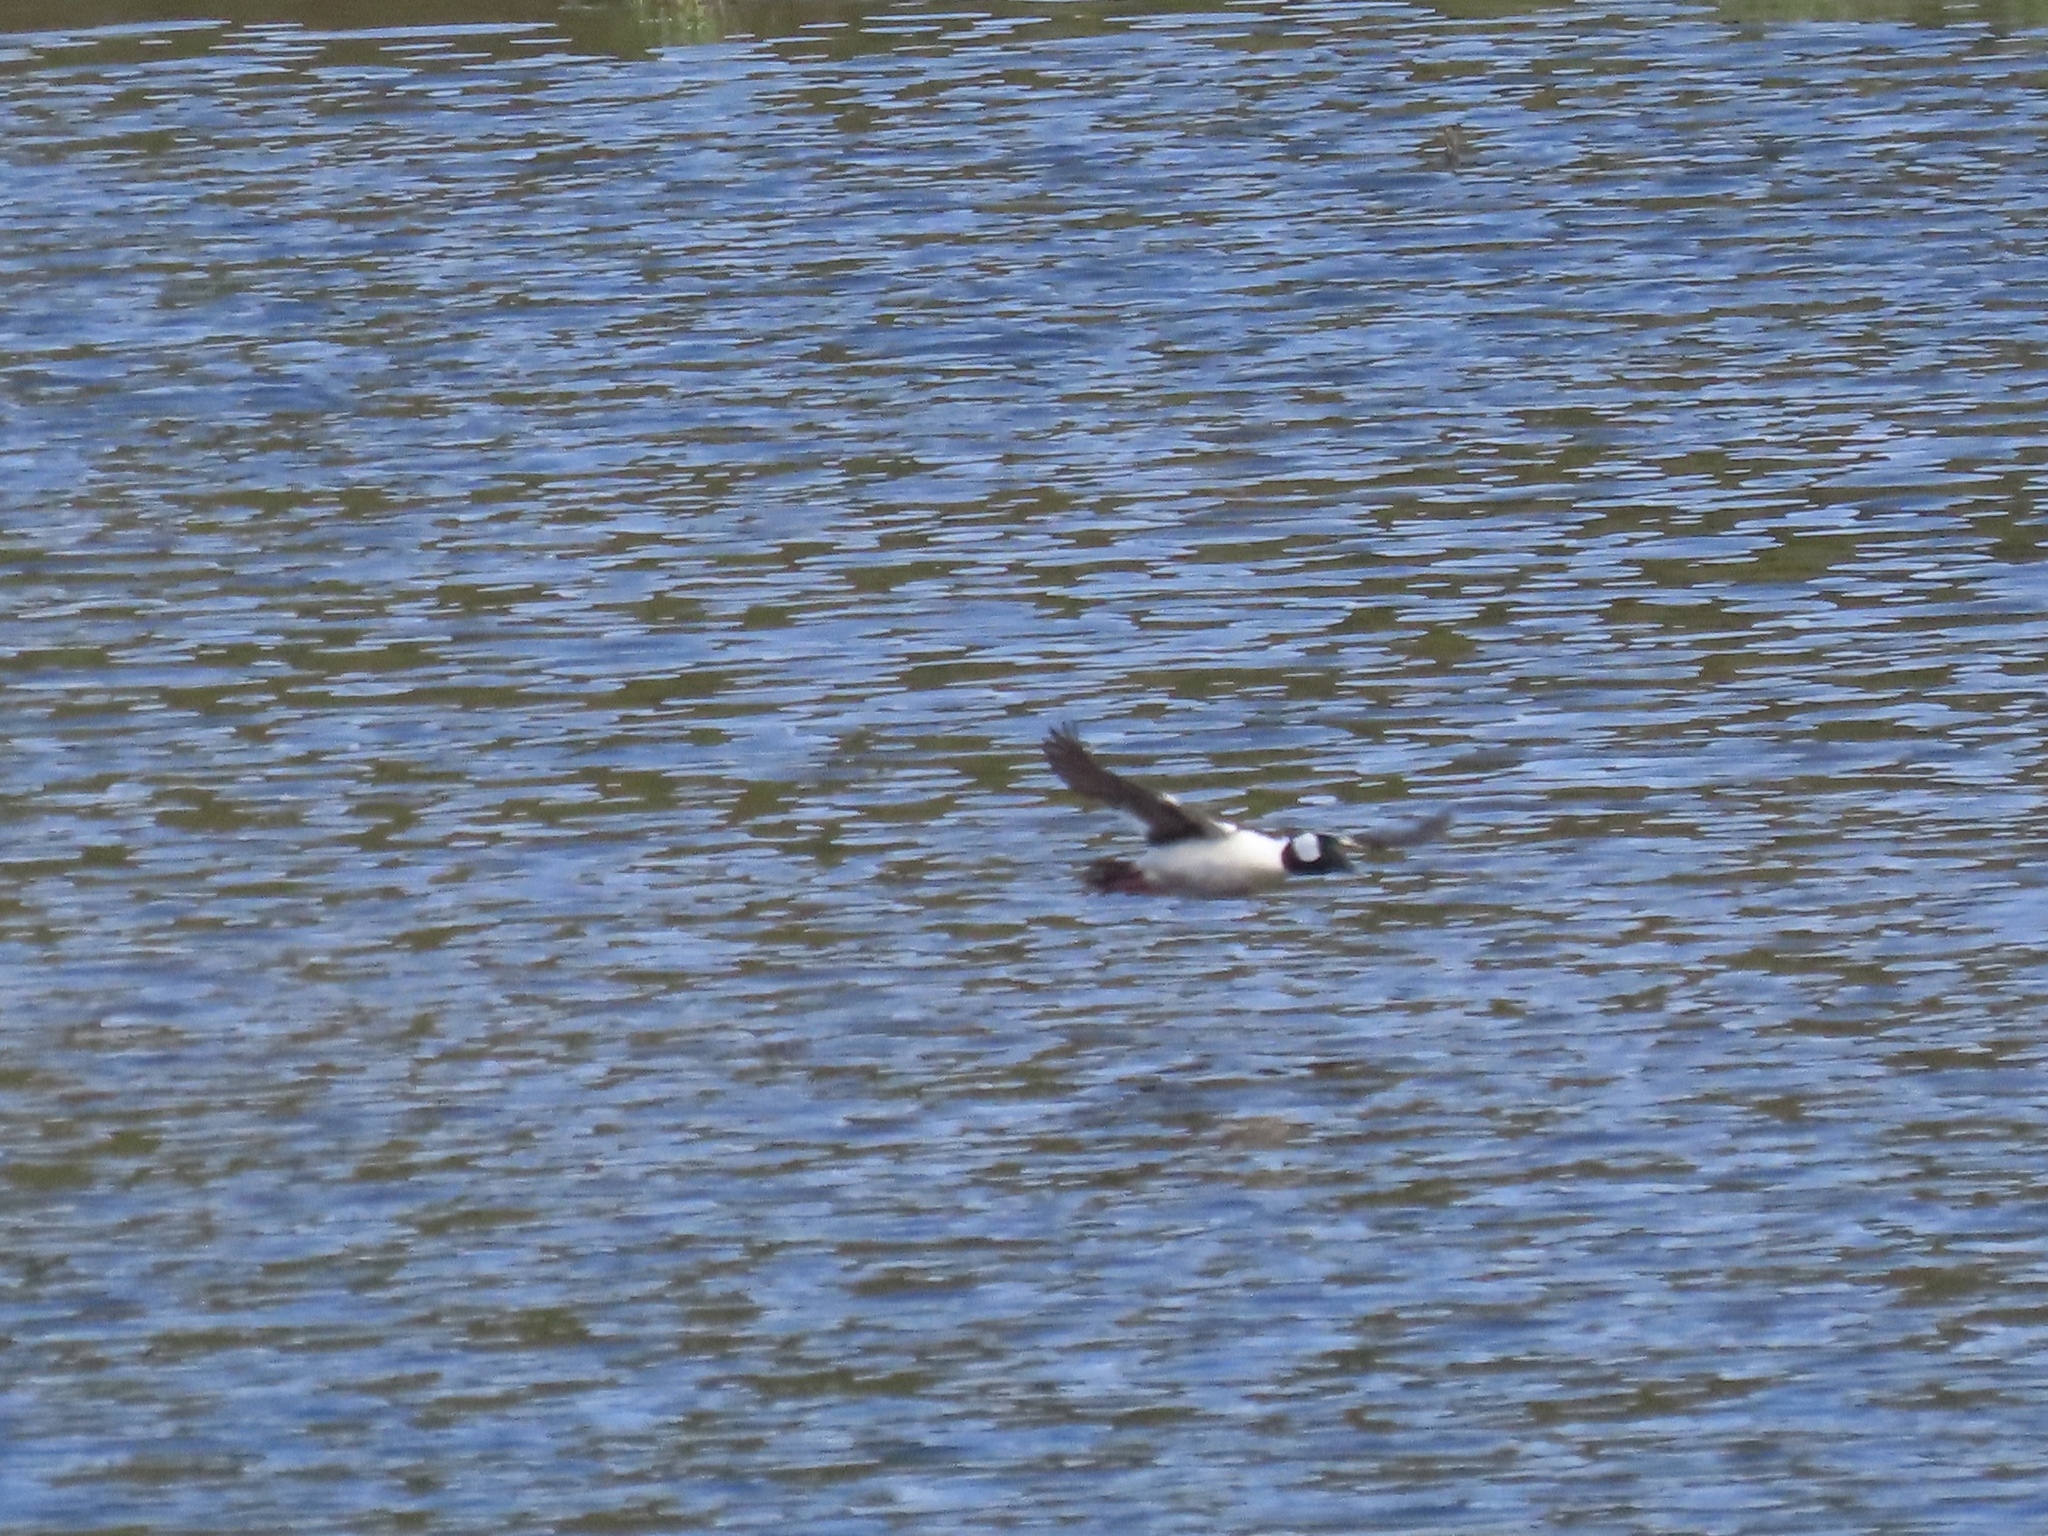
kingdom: Animalia
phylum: Chordata
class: Aves
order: Anseriformes
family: Anatidae
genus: Bucephala
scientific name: Bucephala albeola
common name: Bufflehead
